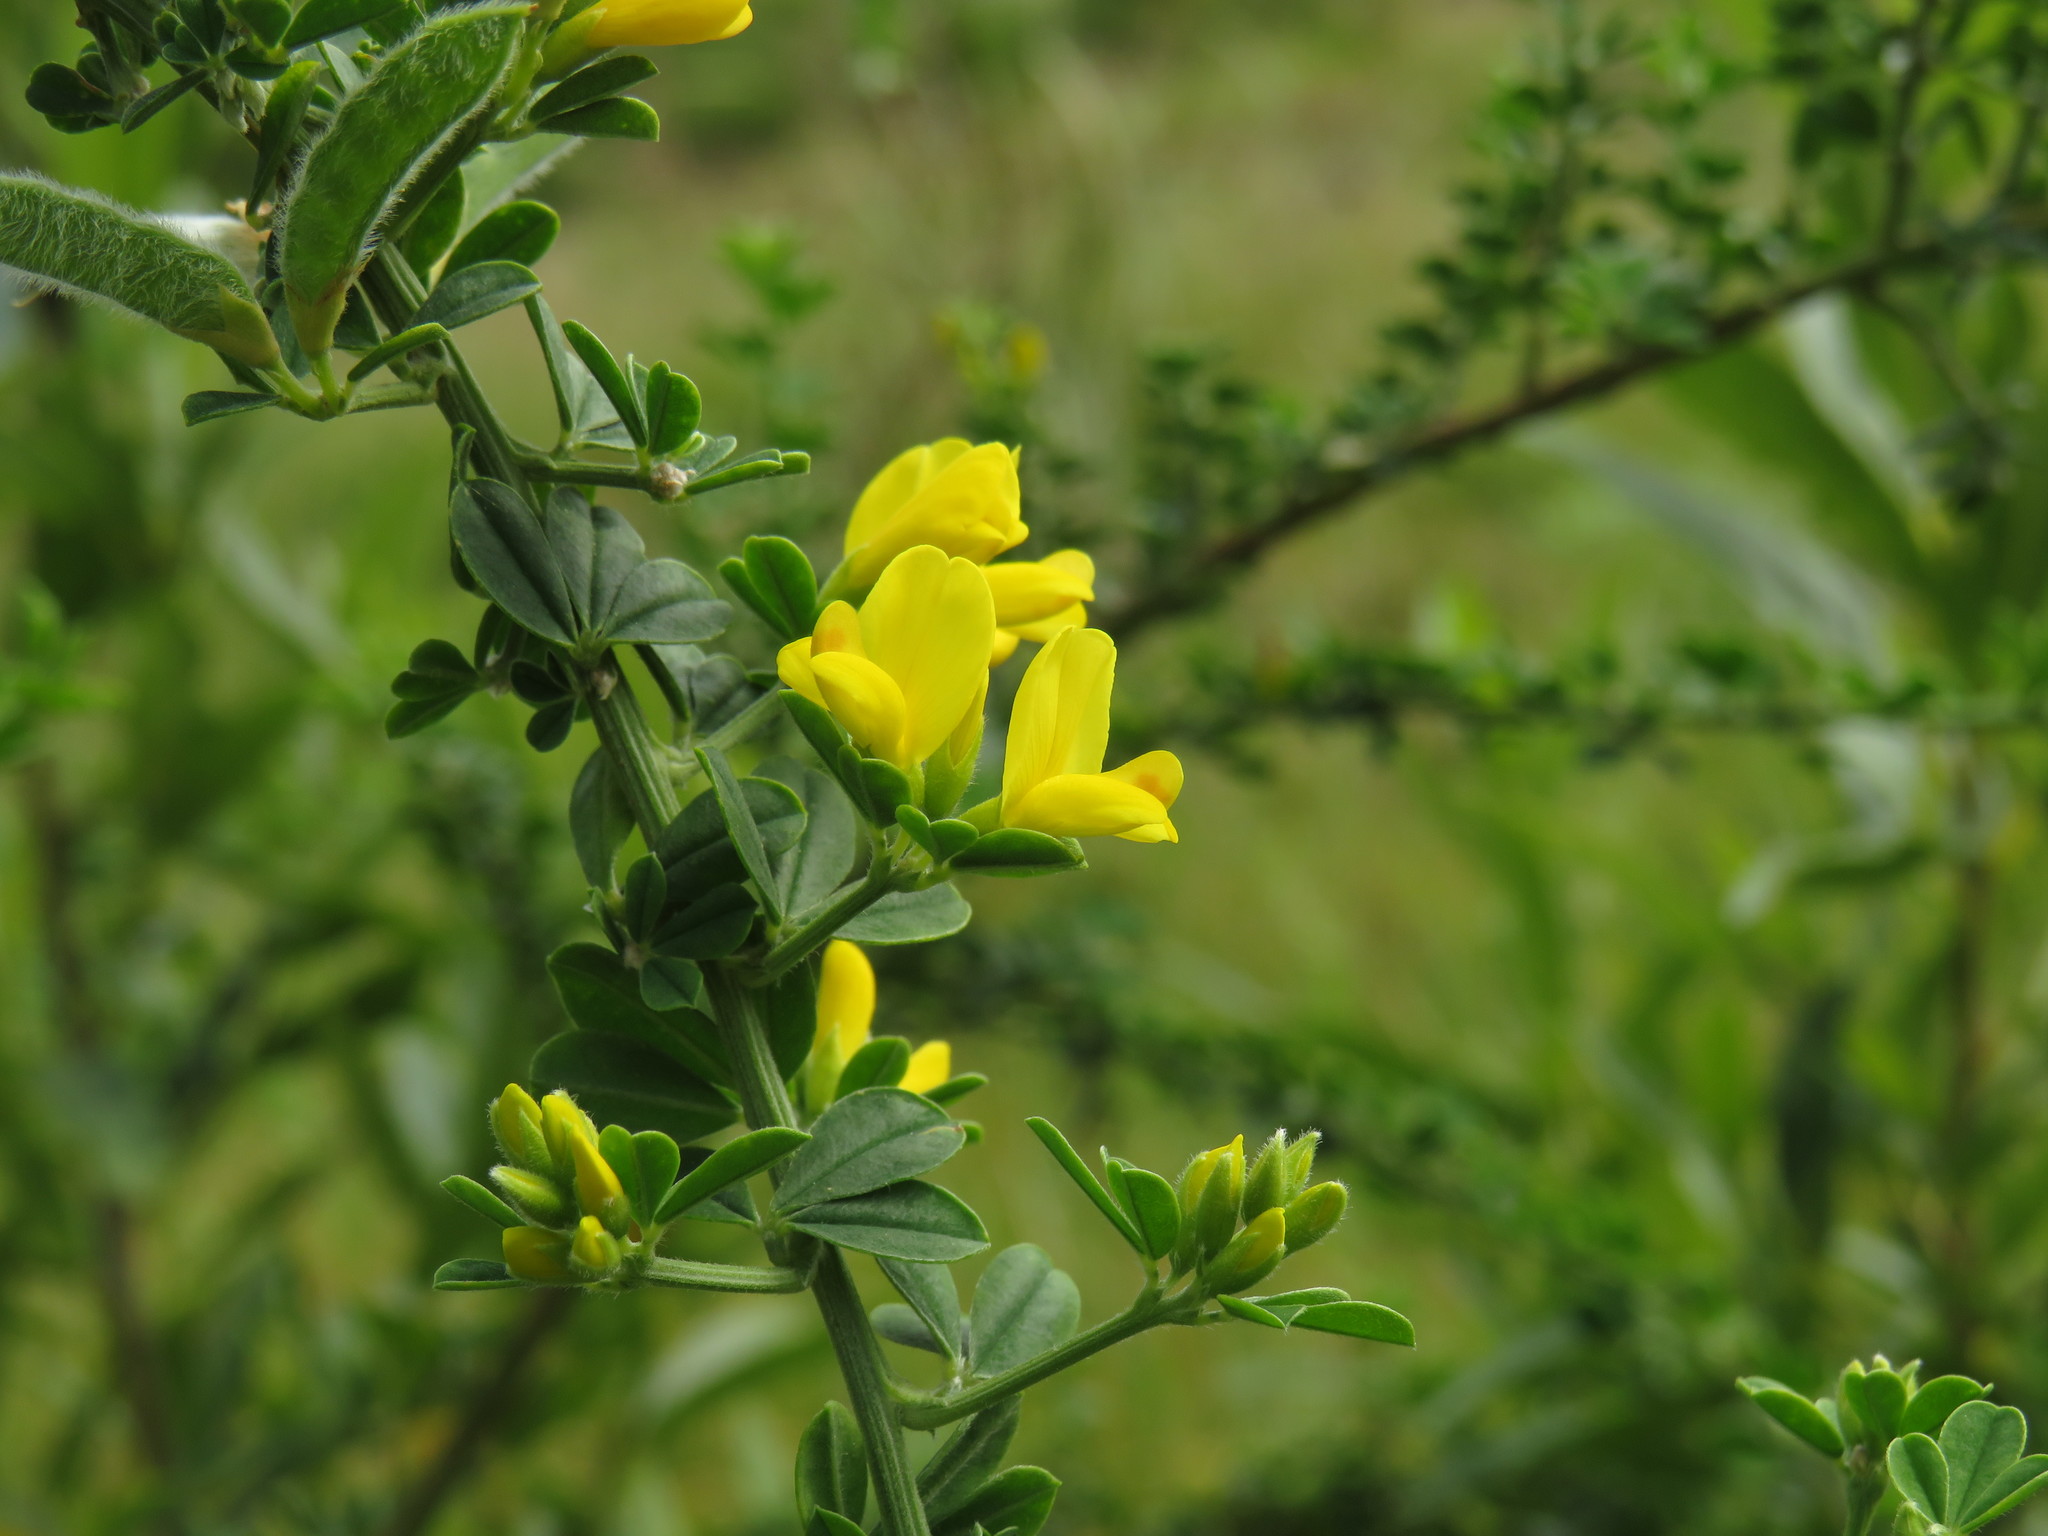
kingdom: Plantae
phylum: Tracheophyta
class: Magnoliopsida
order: Fabales
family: Fabaceae
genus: Genista
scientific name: Genista monspessulana
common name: Montpellier broom
